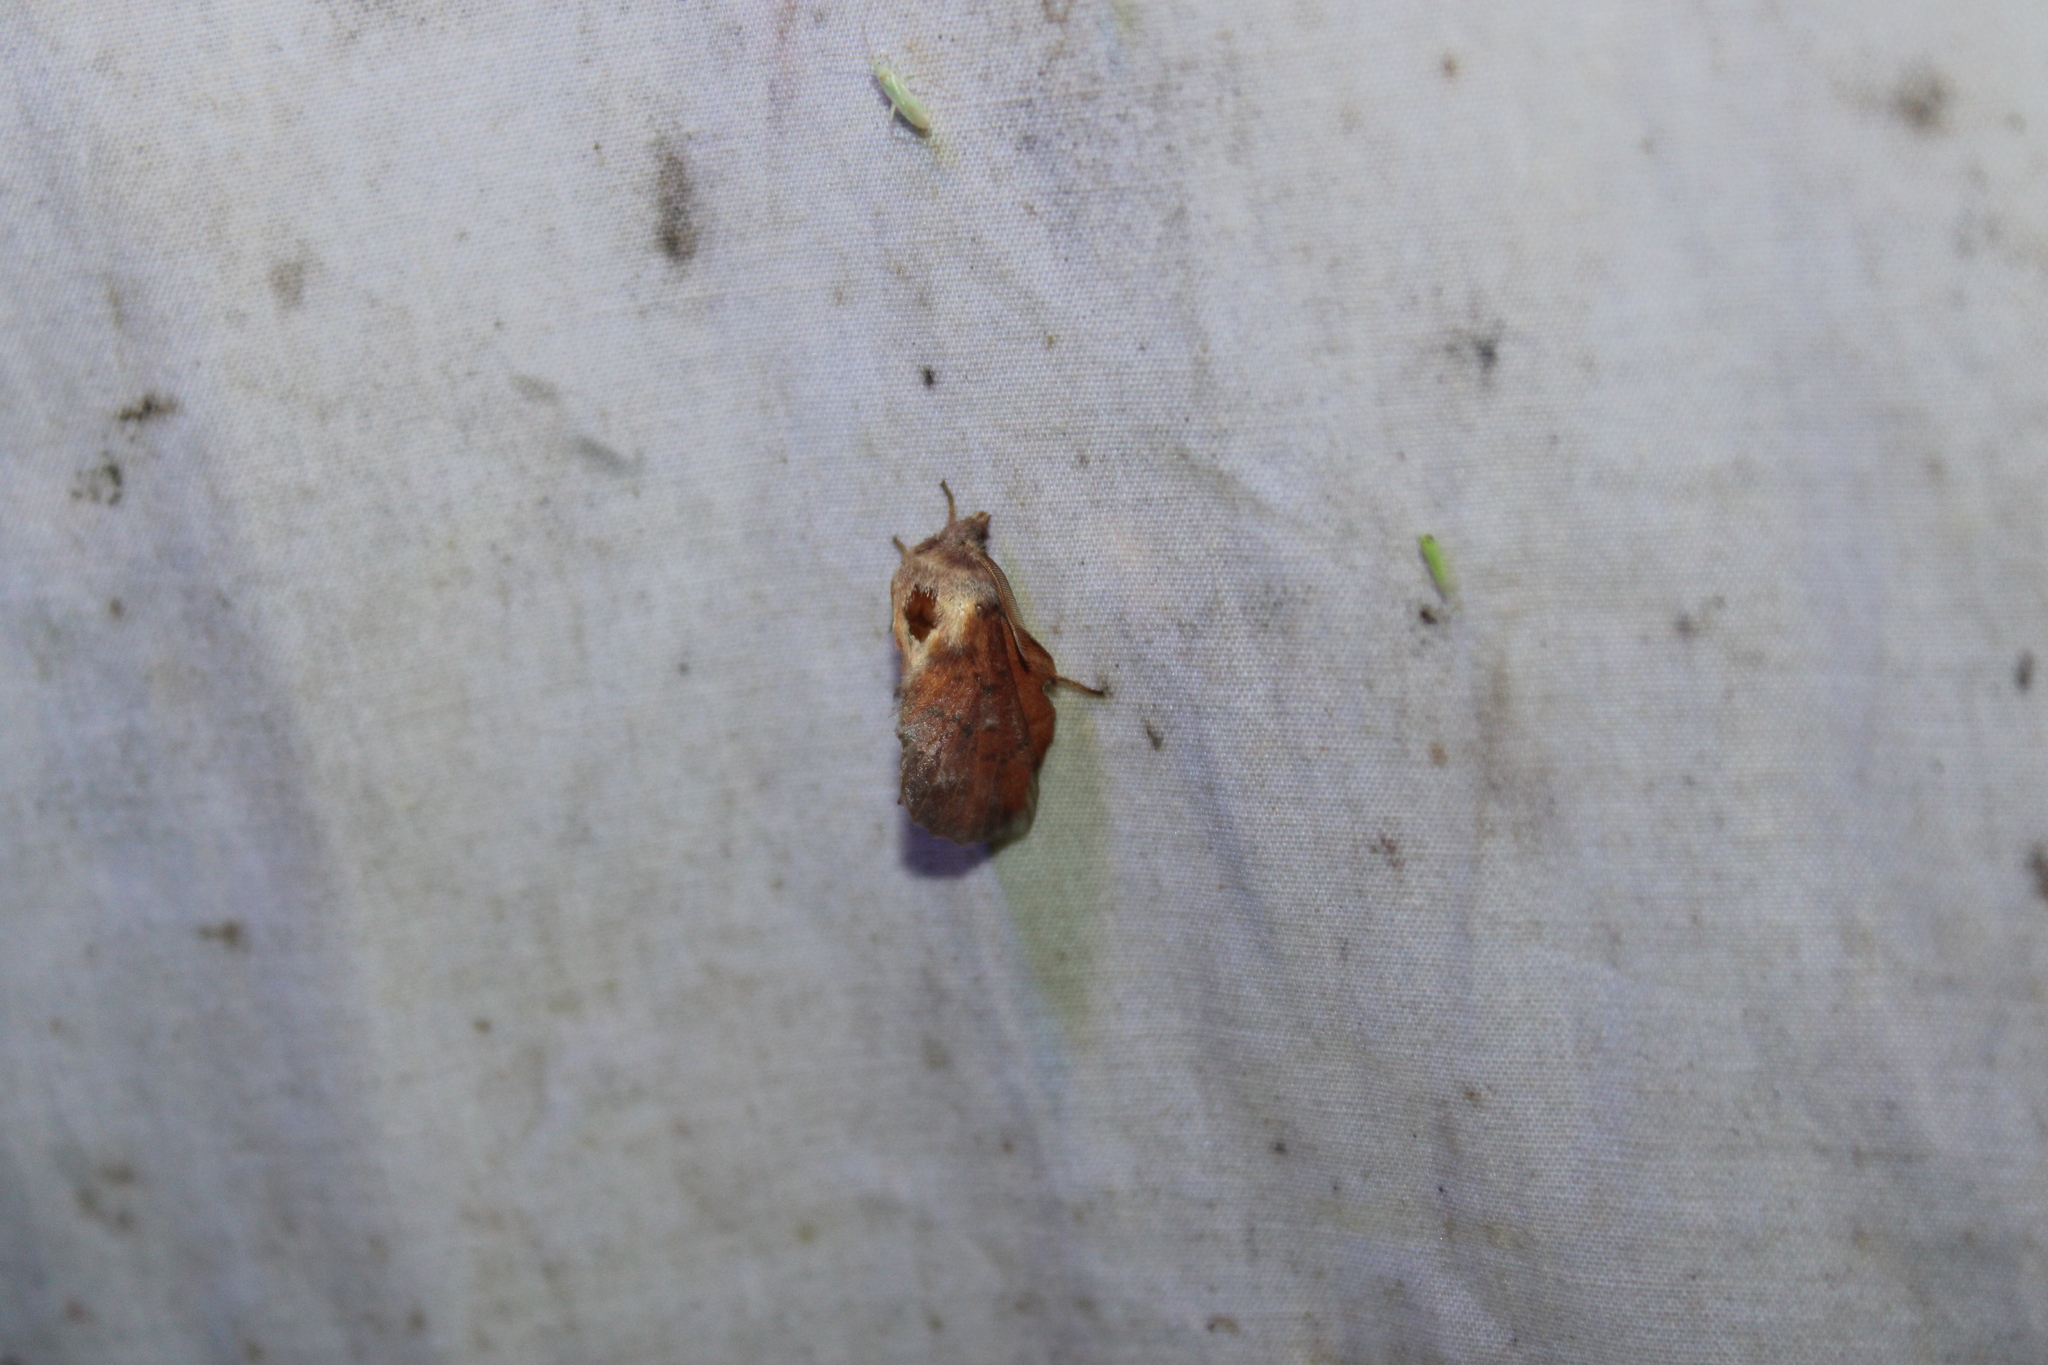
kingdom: Animalia
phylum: Arthropoda
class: Insecta
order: Lepidoptera
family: Lasiocampidae
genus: Phyllodesma
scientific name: Phyllodesma americana
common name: American lappet moth
